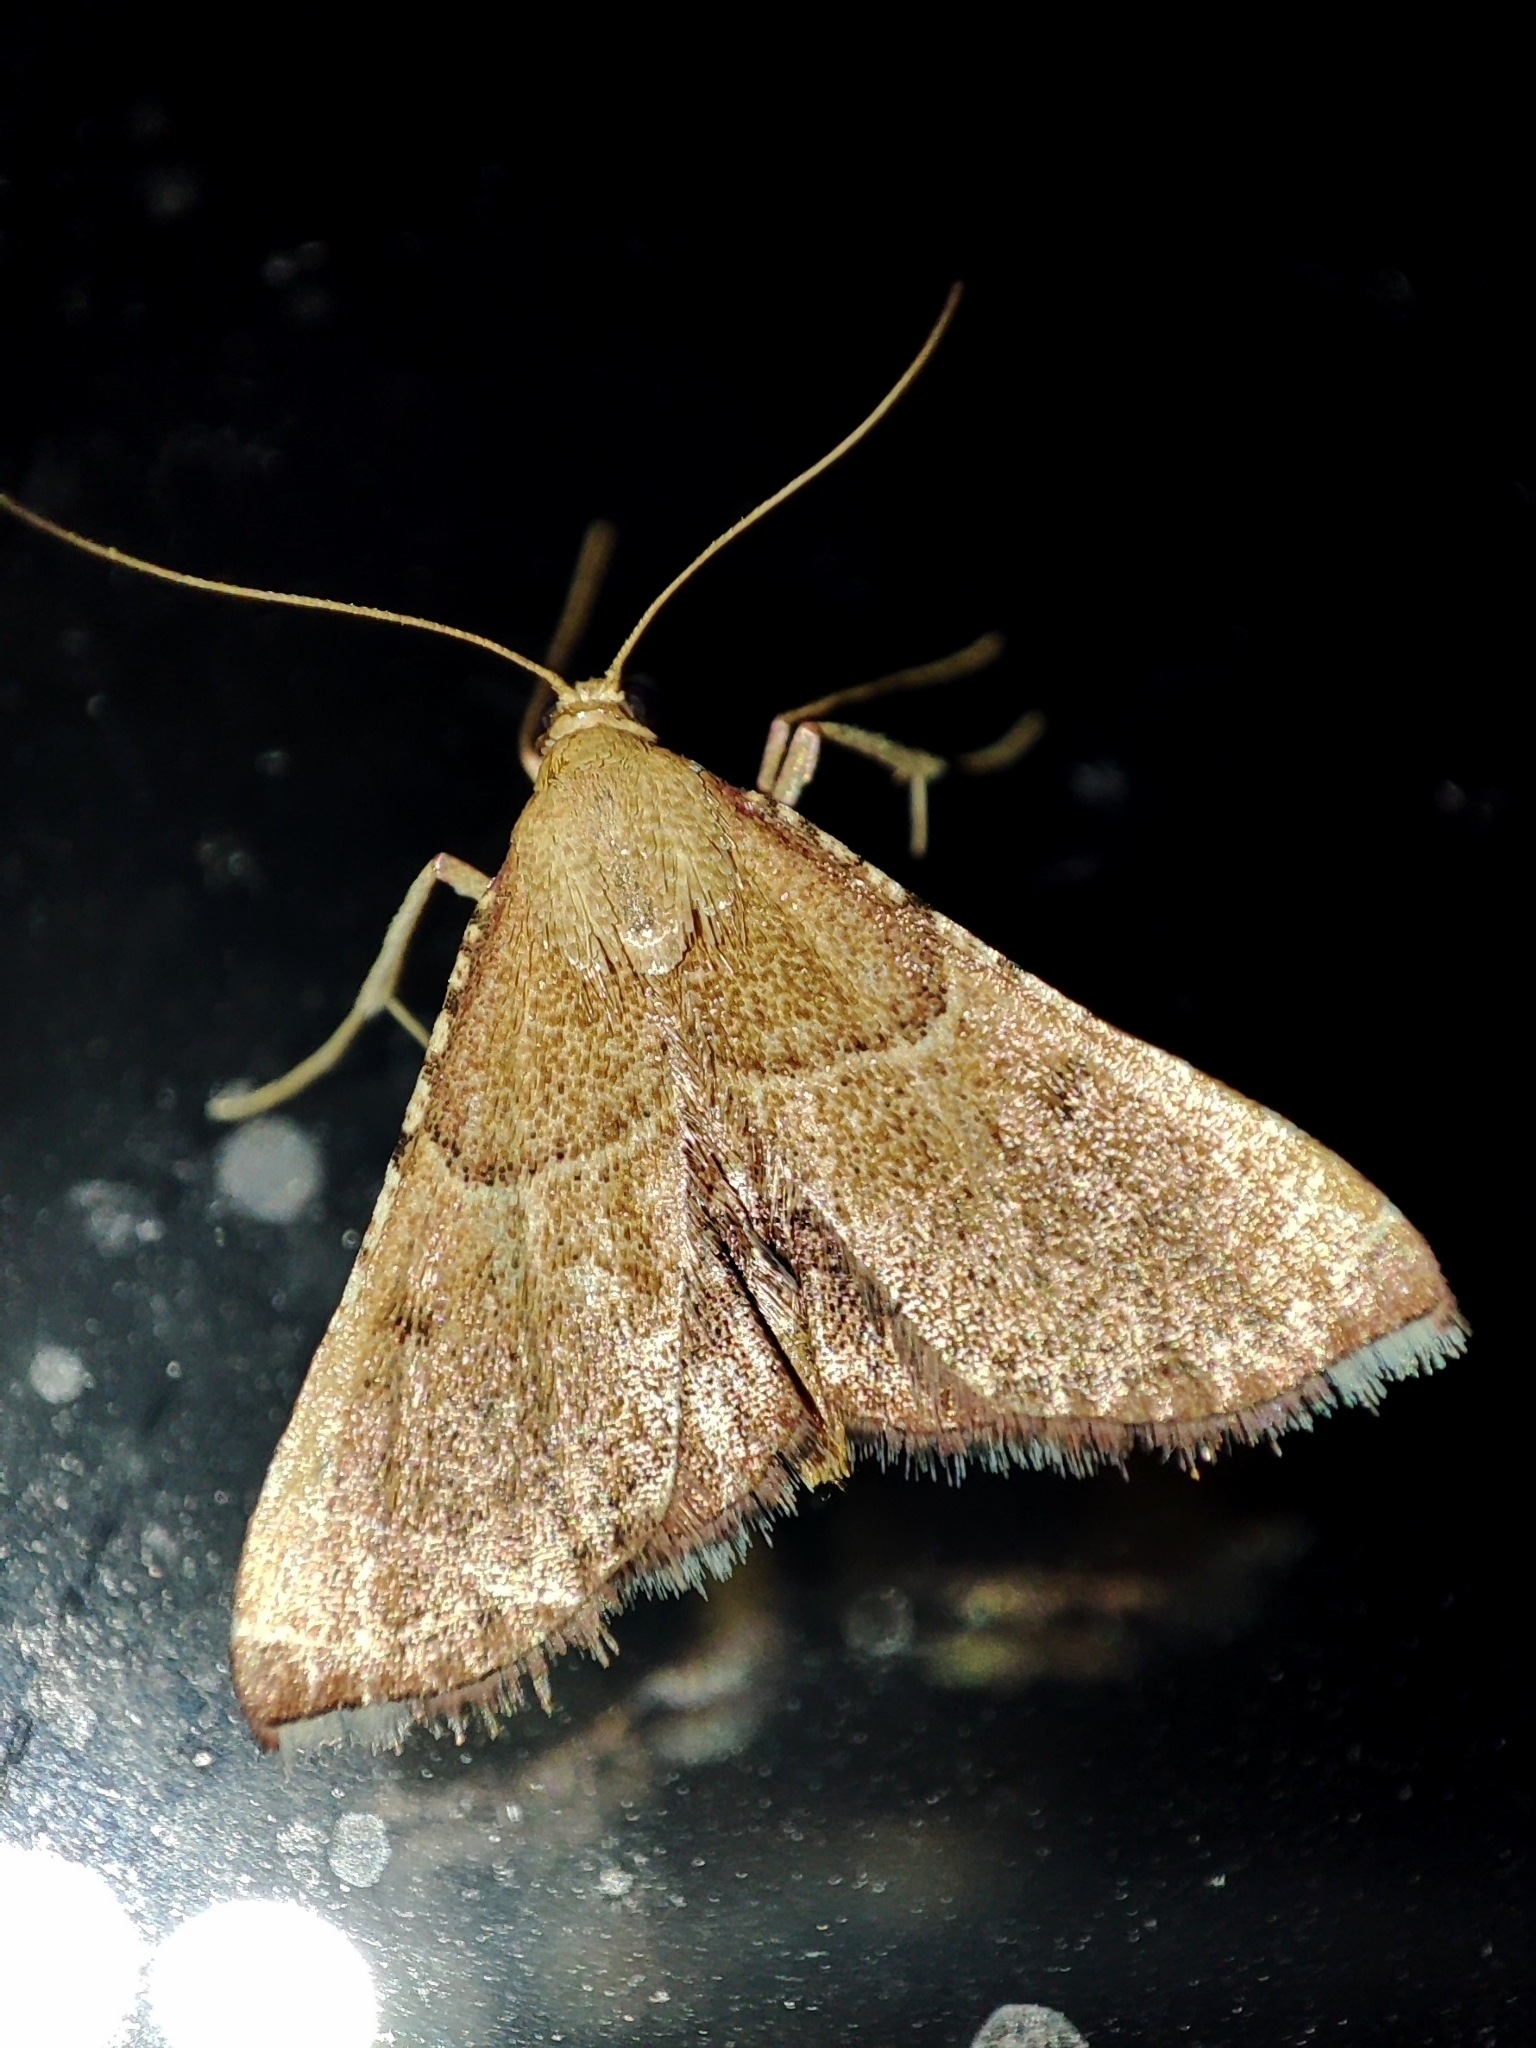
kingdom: Animalia
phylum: Arthropoda
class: Insecta
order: Lepidoptera
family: Pyralidae
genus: Endotricha
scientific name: Endotricha flammealis
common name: Rosy tabby
